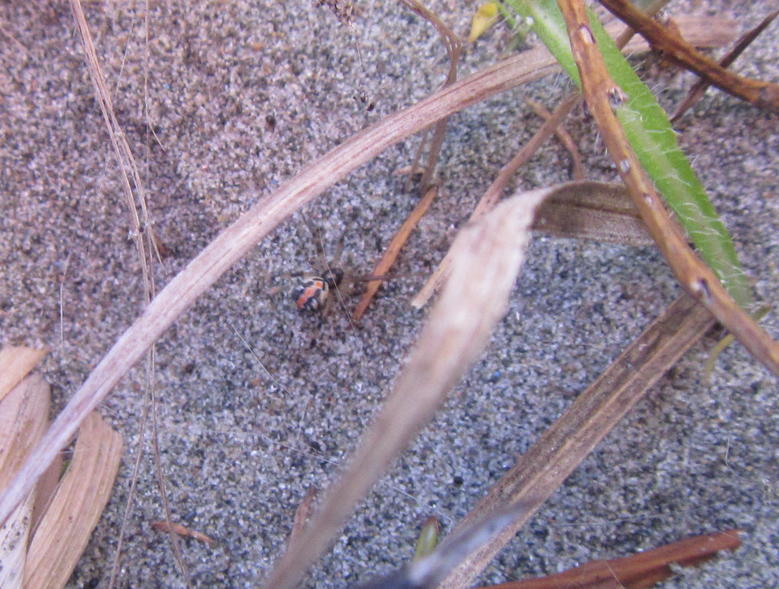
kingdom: Animalia
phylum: Arthropoda
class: Arachnida
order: Araneae
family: Theridiidae
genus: Latrodectus
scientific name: Latrodectus katipo
